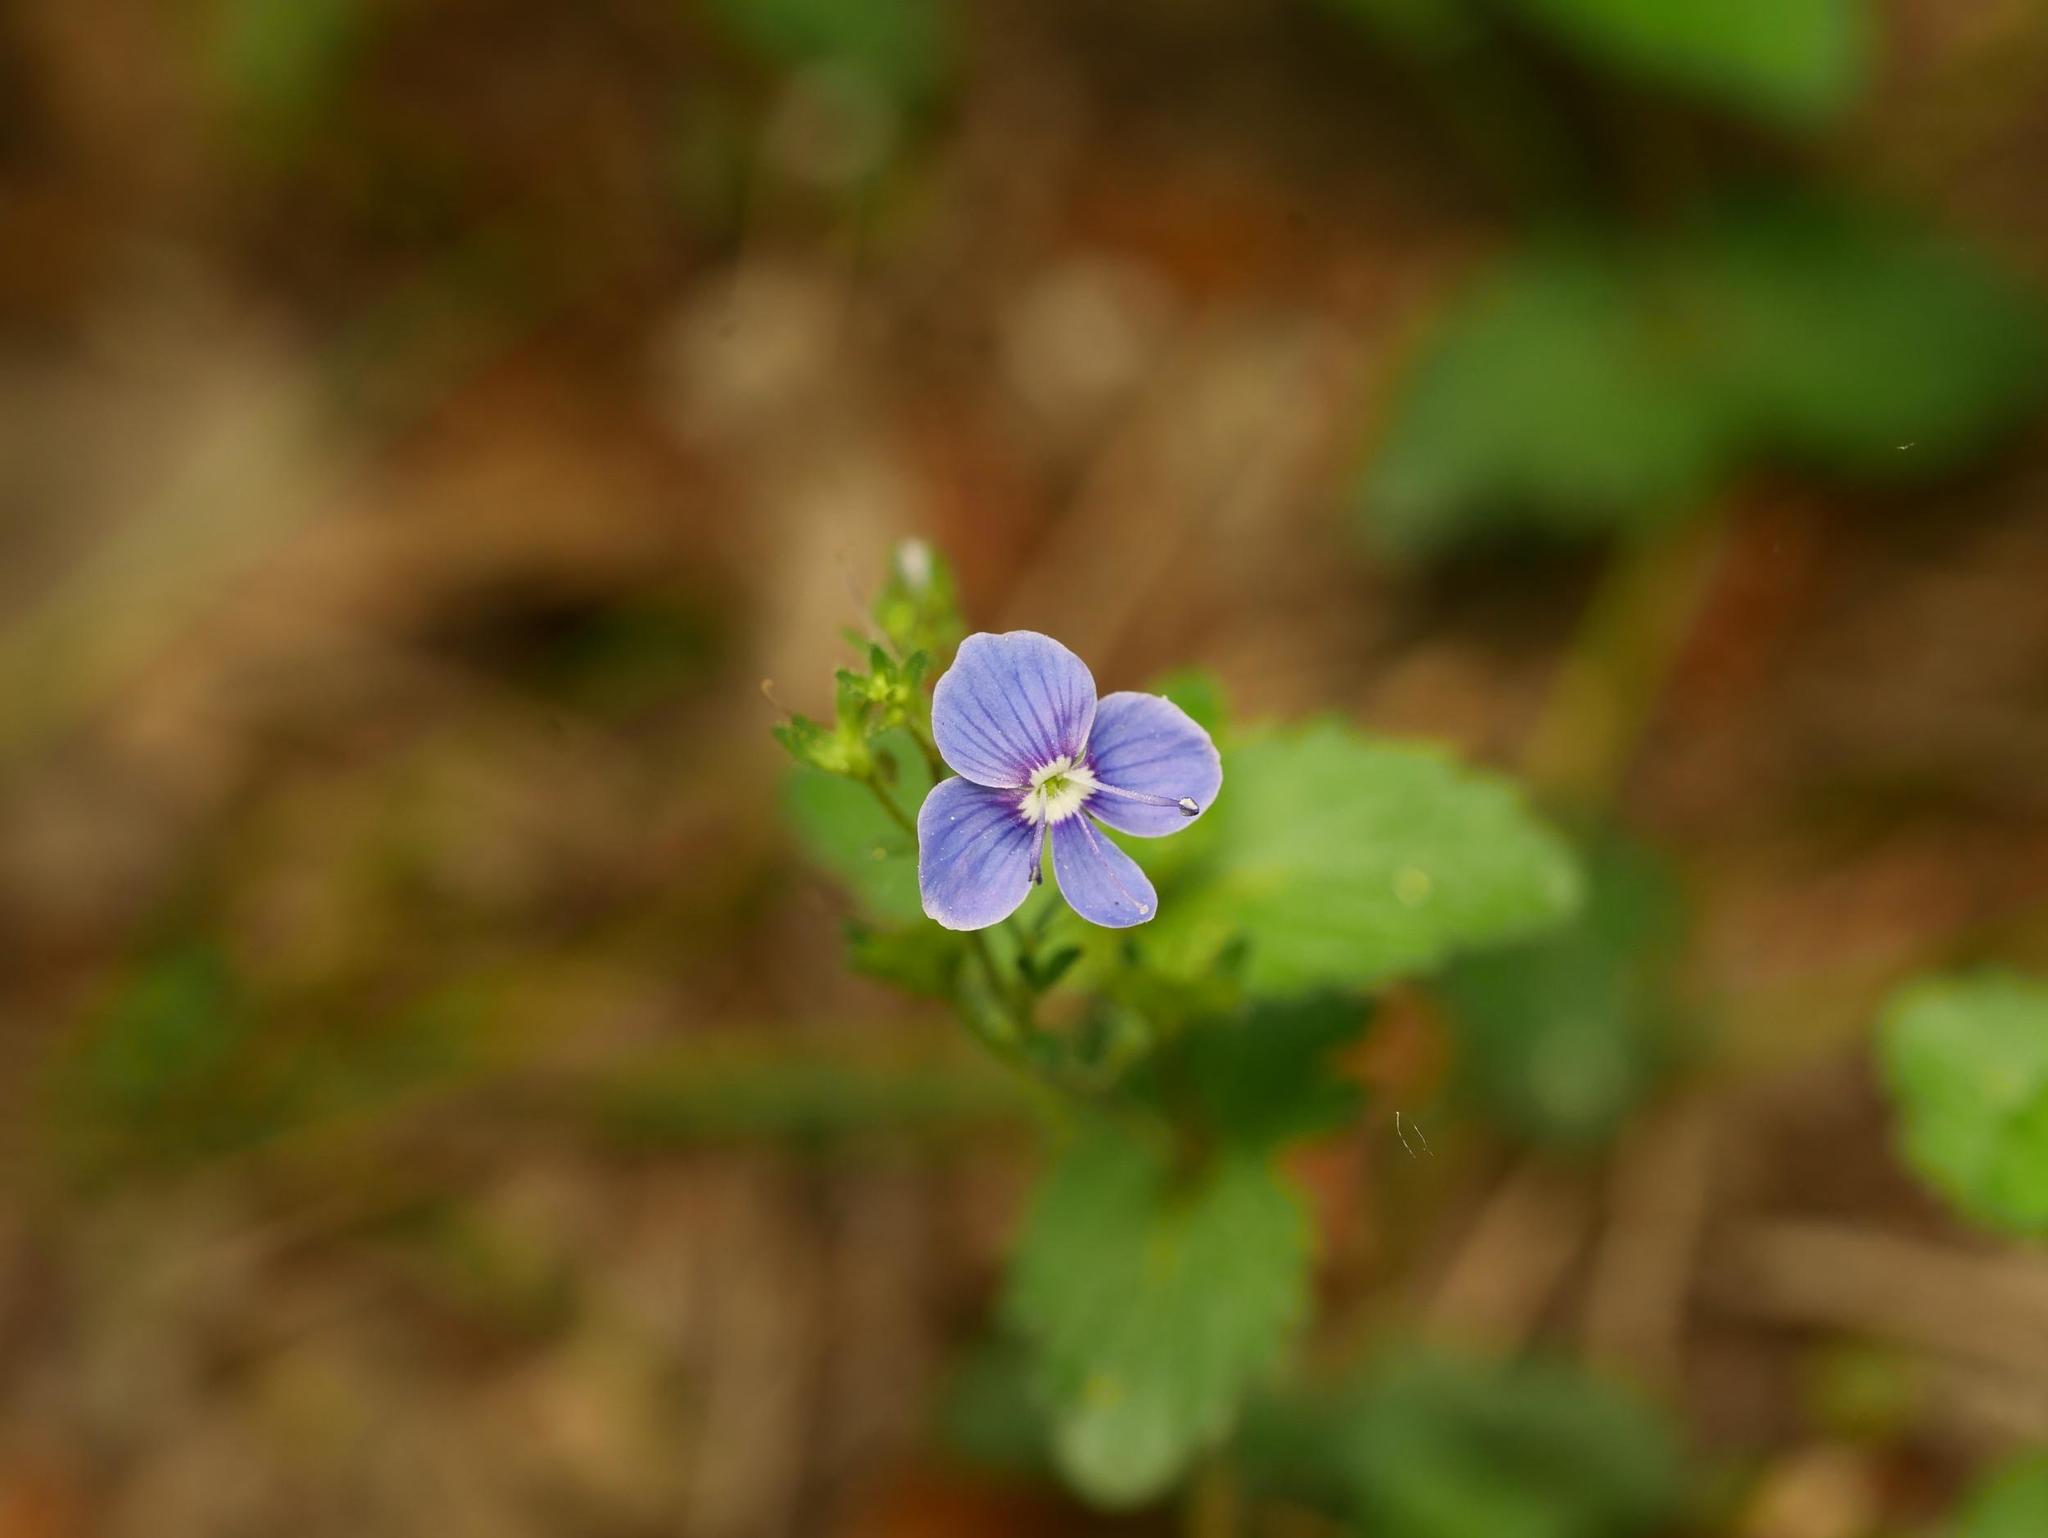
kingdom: Plantae
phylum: Tracheophyta
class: Magnoliopsida
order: Lamiales
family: Plantaginaceae
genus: Veronica
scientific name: Veronica chamaedrys
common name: Germander speedwell
